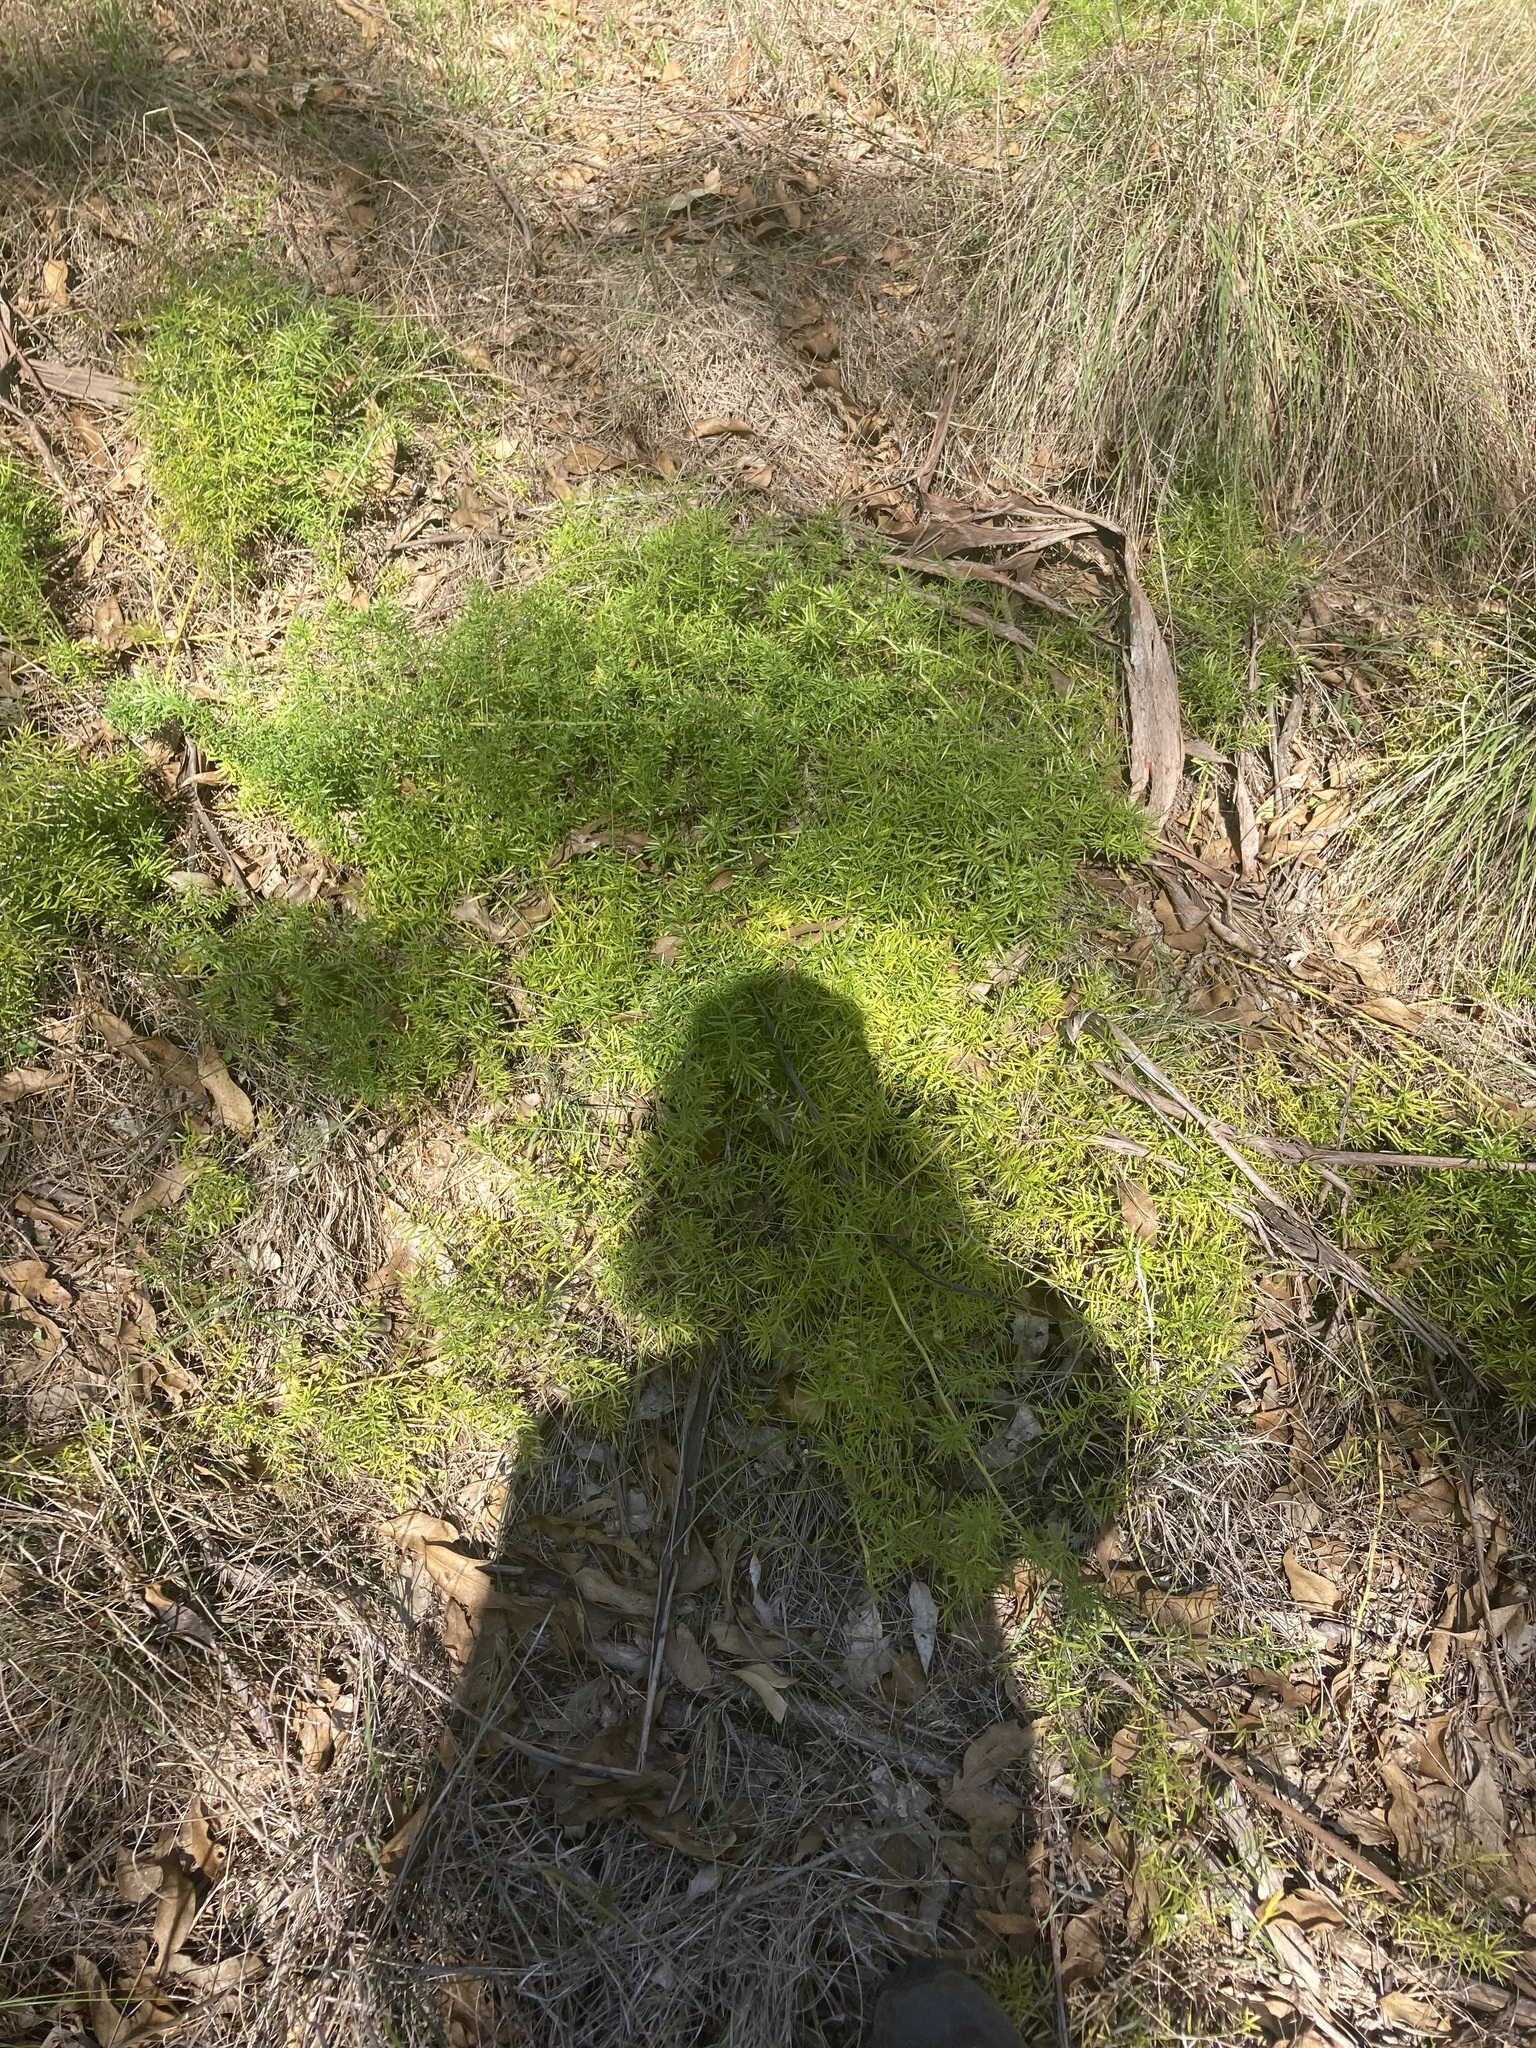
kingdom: Plantae
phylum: Tracheophyta
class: Liliopsida
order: Asparagales
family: Asparagaceae
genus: Asparagus
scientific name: Asparagus aethiopicus
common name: Sprenger's asparagus fern
